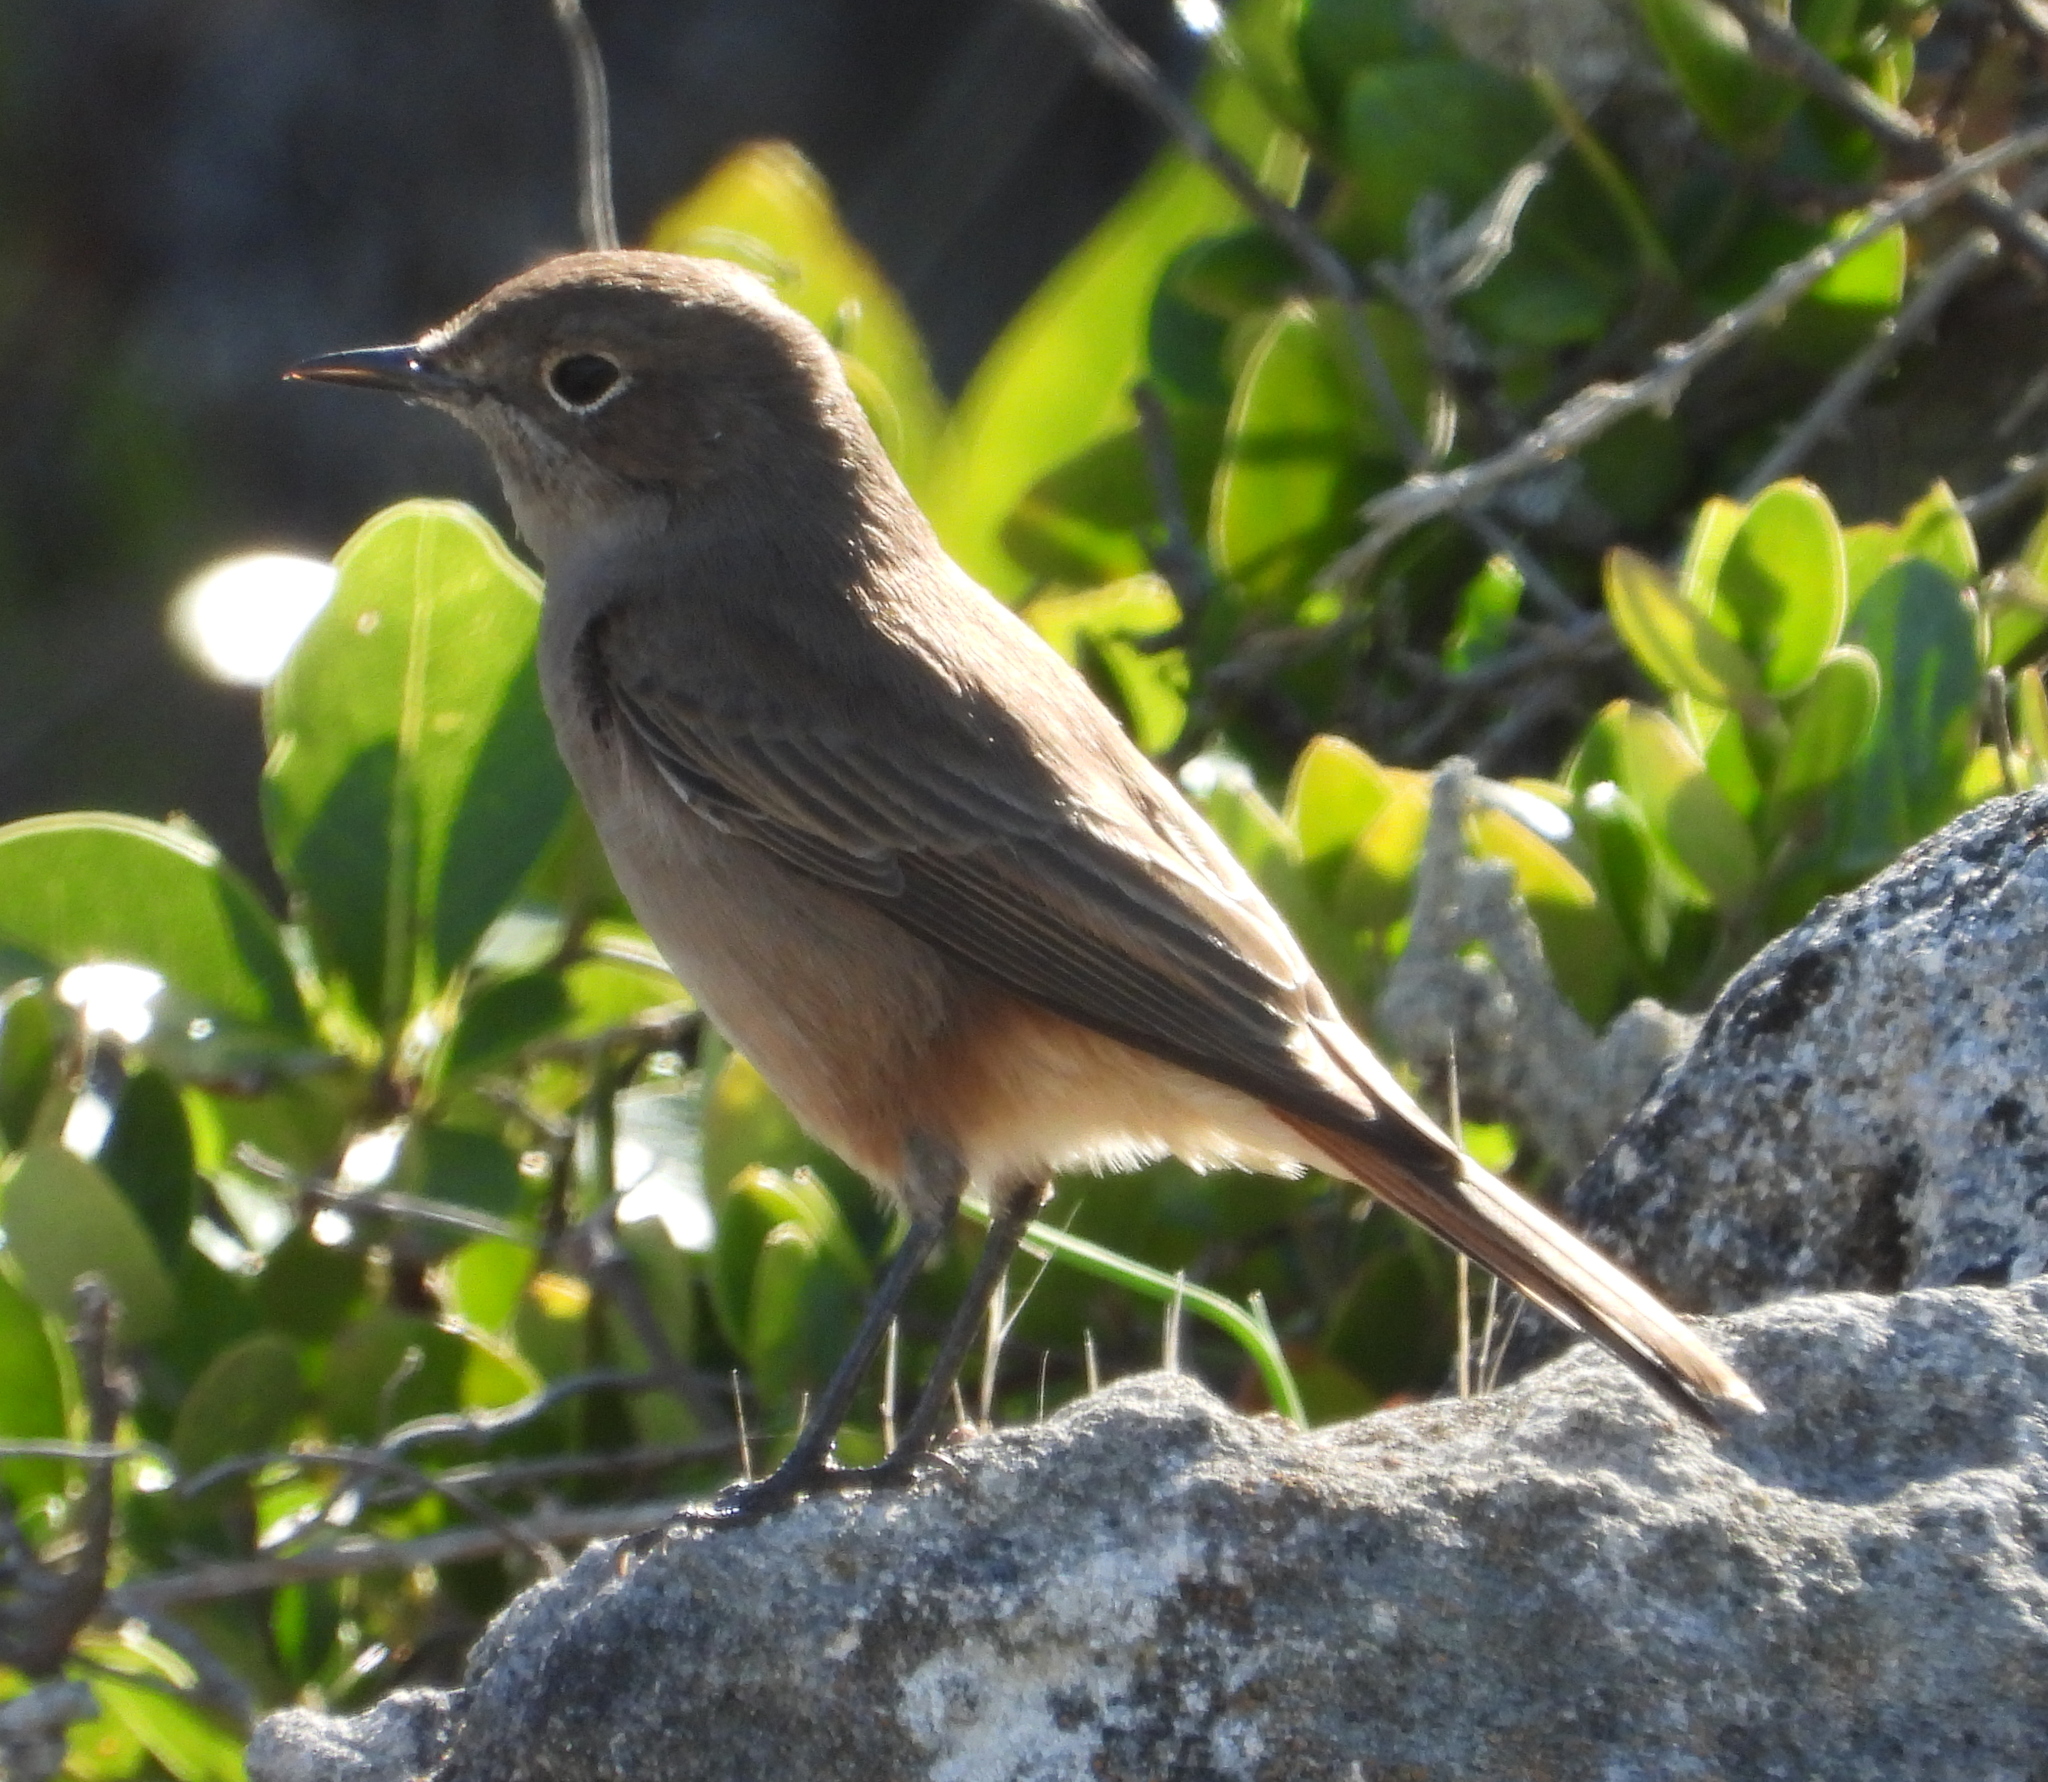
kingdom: Animalia
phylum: Chordata
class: Aves
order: Passeriformes
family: Muscicapidae
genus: Oenanthe
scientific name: Oenanthe familiaris
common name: Familiar chat
